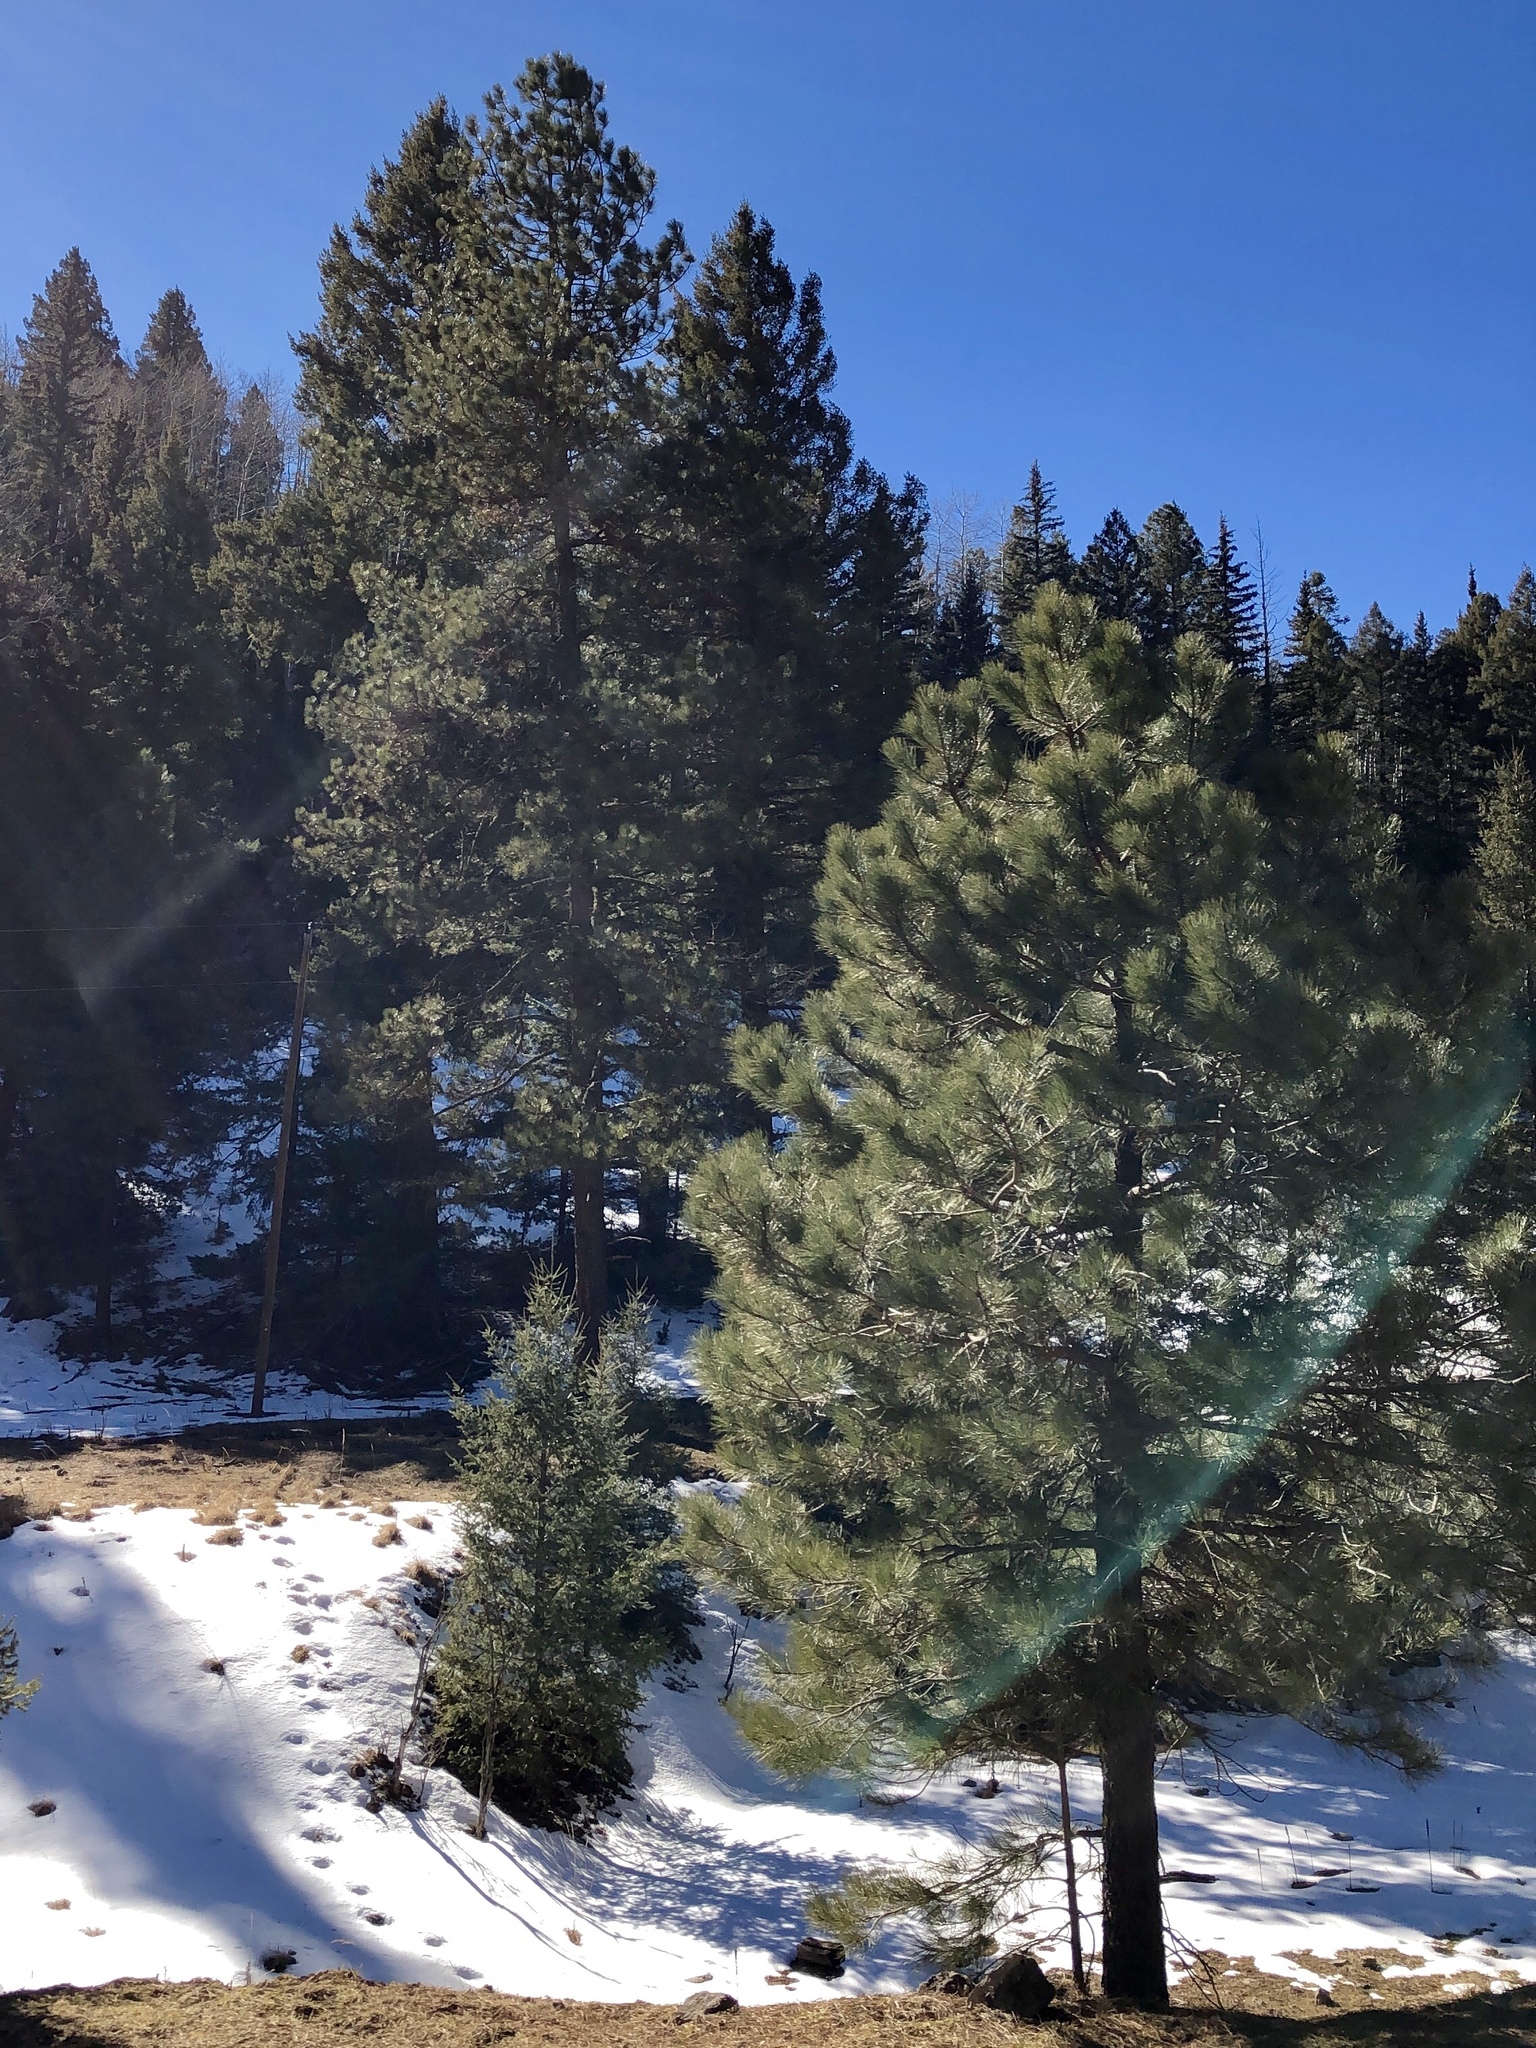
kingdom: Plantae
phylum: Tracheophyta
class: Pinopsida
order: Pinales
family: Pinaceae
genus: Pinus
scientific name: Pinus ponderosa
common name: Western yellow-pine
